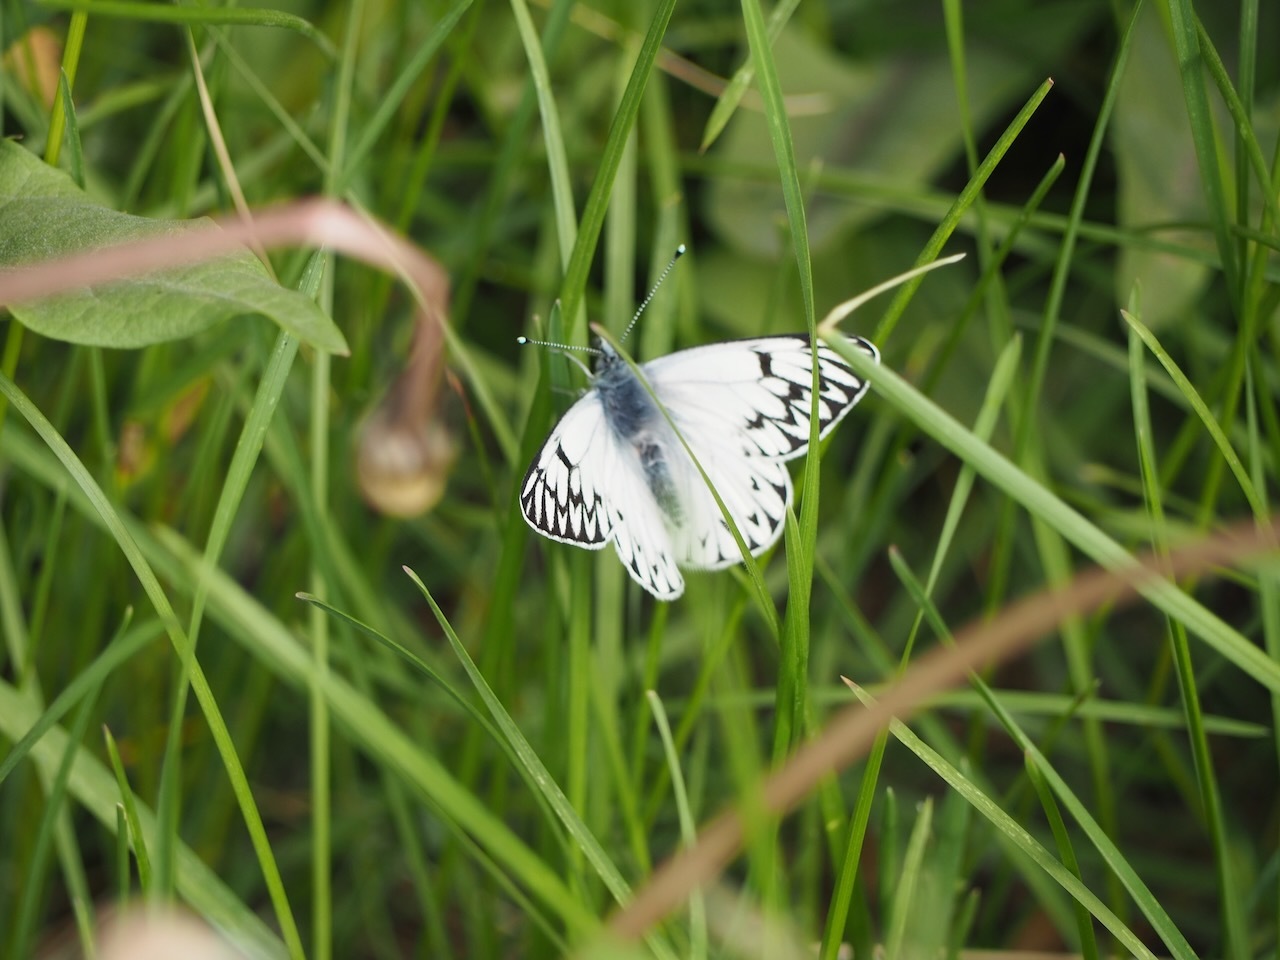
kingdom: Animalia
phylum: Arthropoda
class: Insecta
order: Lepidoptera
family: Pieridae
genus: Tatochila
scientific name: Tatochila theodice
